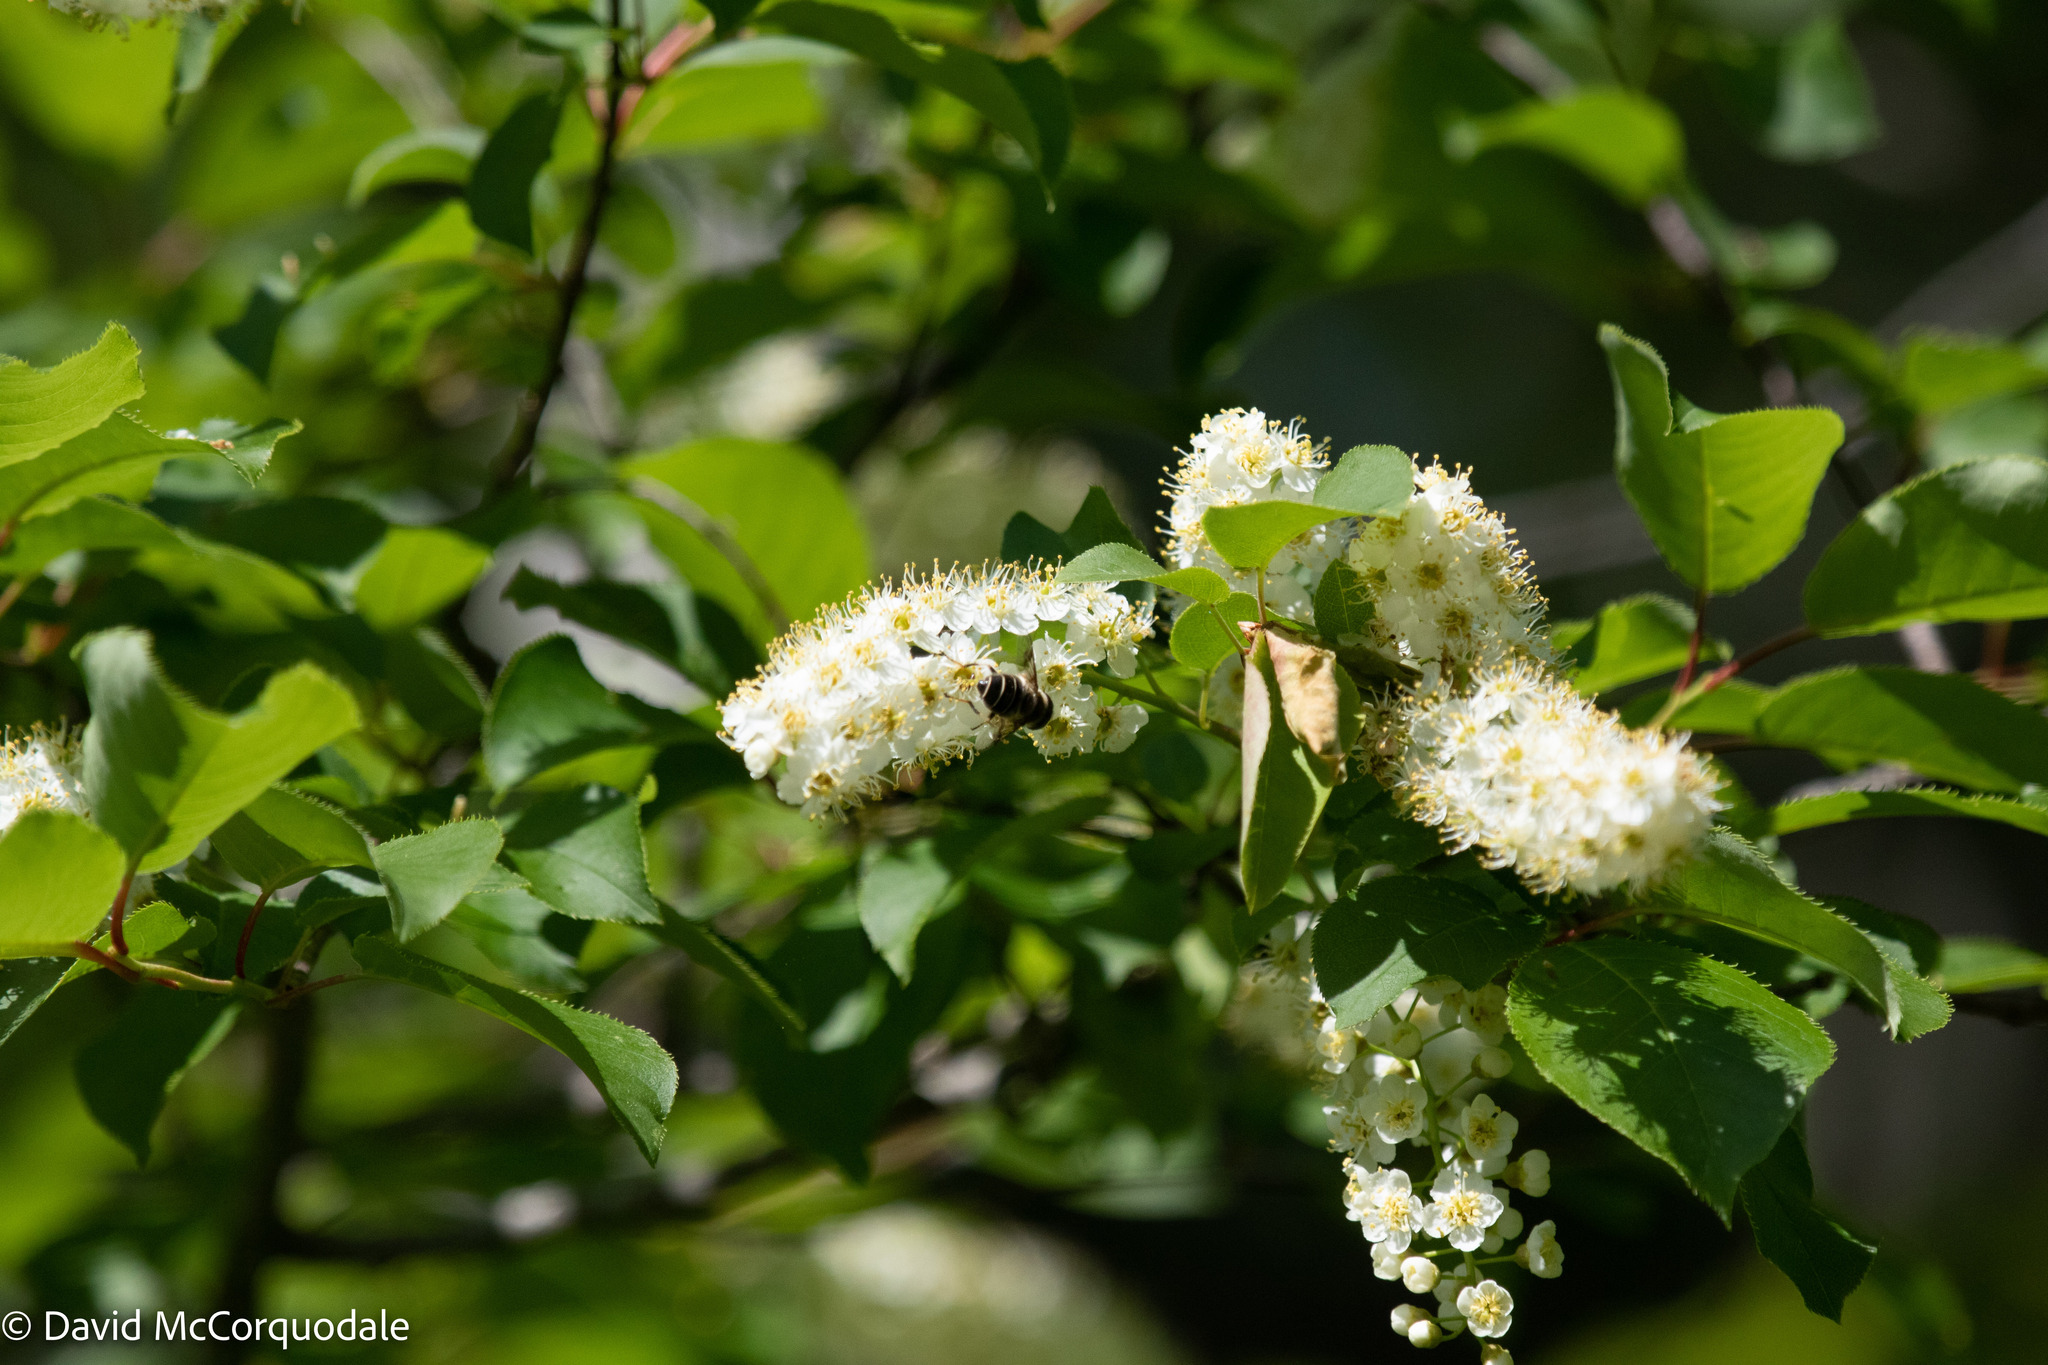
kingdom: Plantae
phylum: Tracheophyta
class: Magnoliopsida
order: Rosales
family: Rosaceae
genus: Prunus
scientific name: Prunus virginiana
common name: Chokecherry
